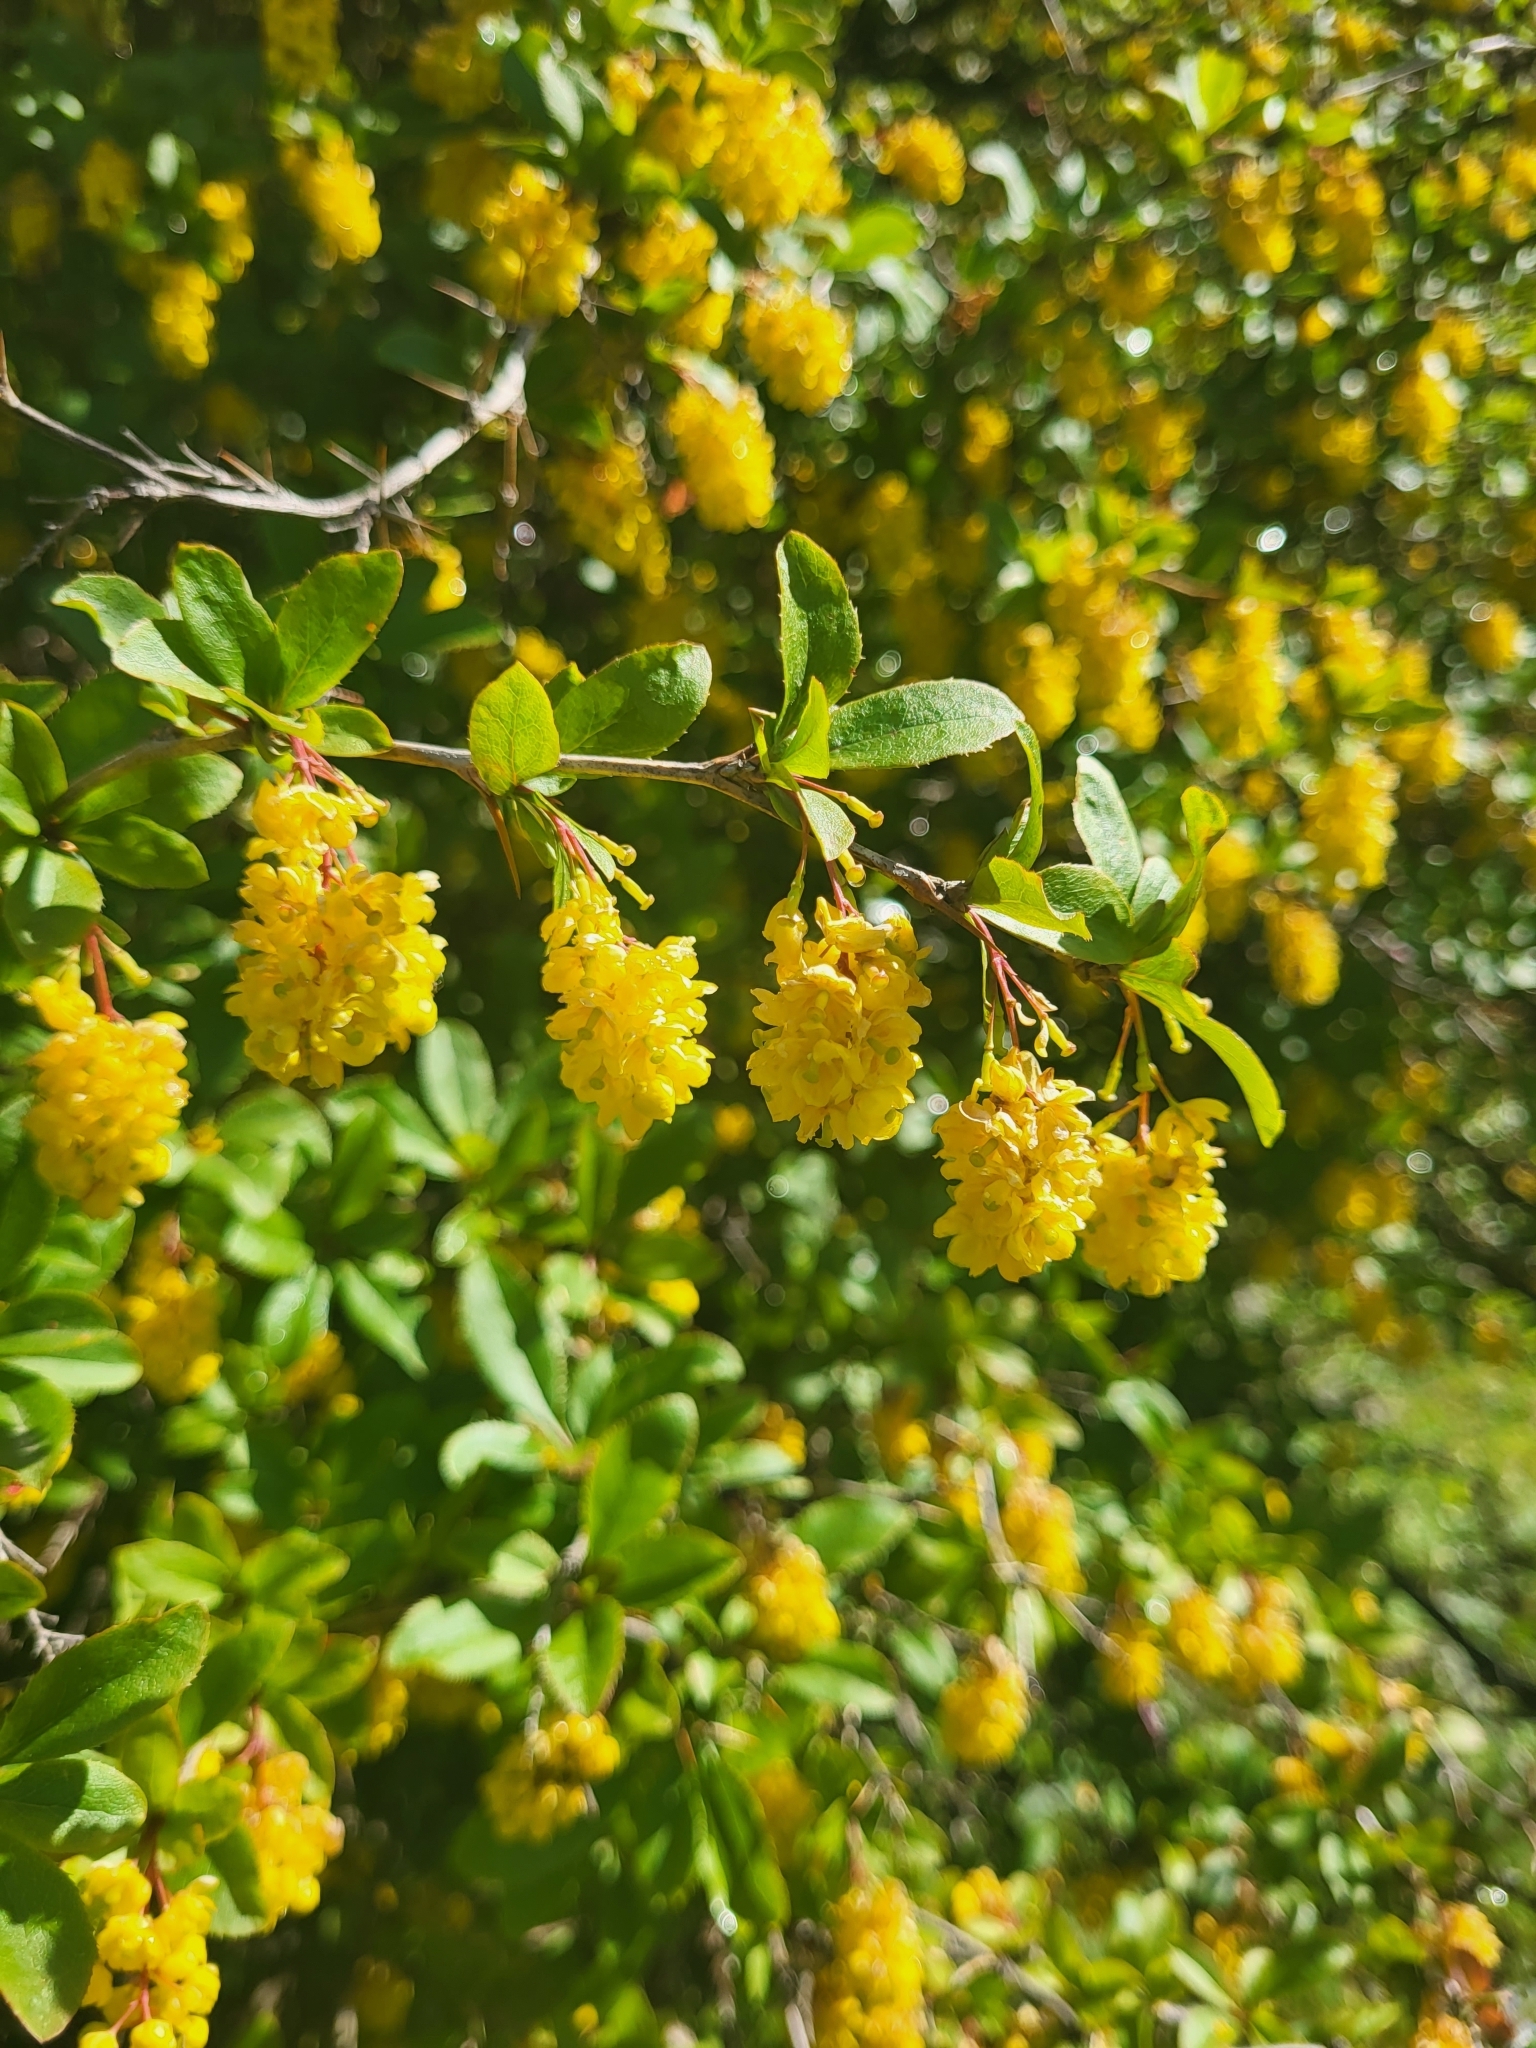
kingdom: Plantae
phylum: Tracheophyta
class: Magnoliopsida
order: Ranunculales
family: Berberidaceae
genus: Berberis
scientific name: Berberis vulgaris
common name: Barberry
